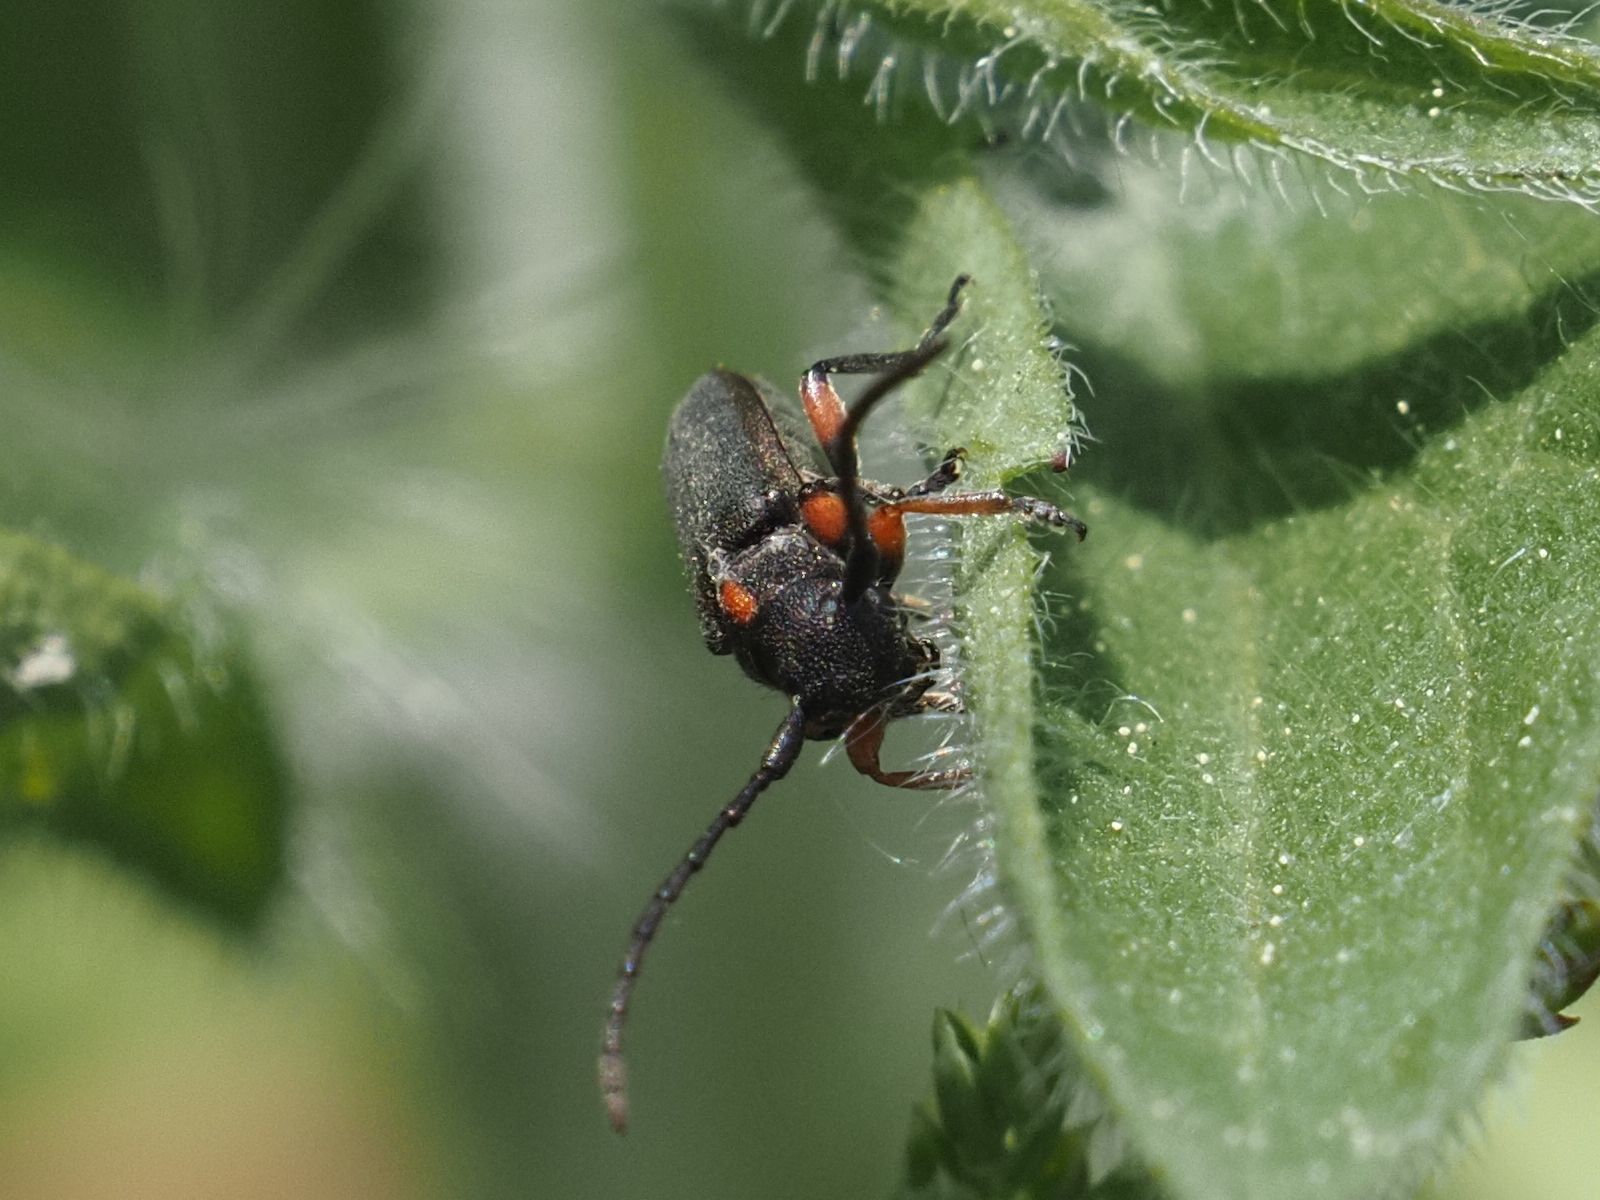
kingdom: Animalia
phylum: Arthropoda
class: Insecta
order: Coleoptera
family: Cerambycidae
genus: Phytoecia
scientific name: Phytoecia pustulata
